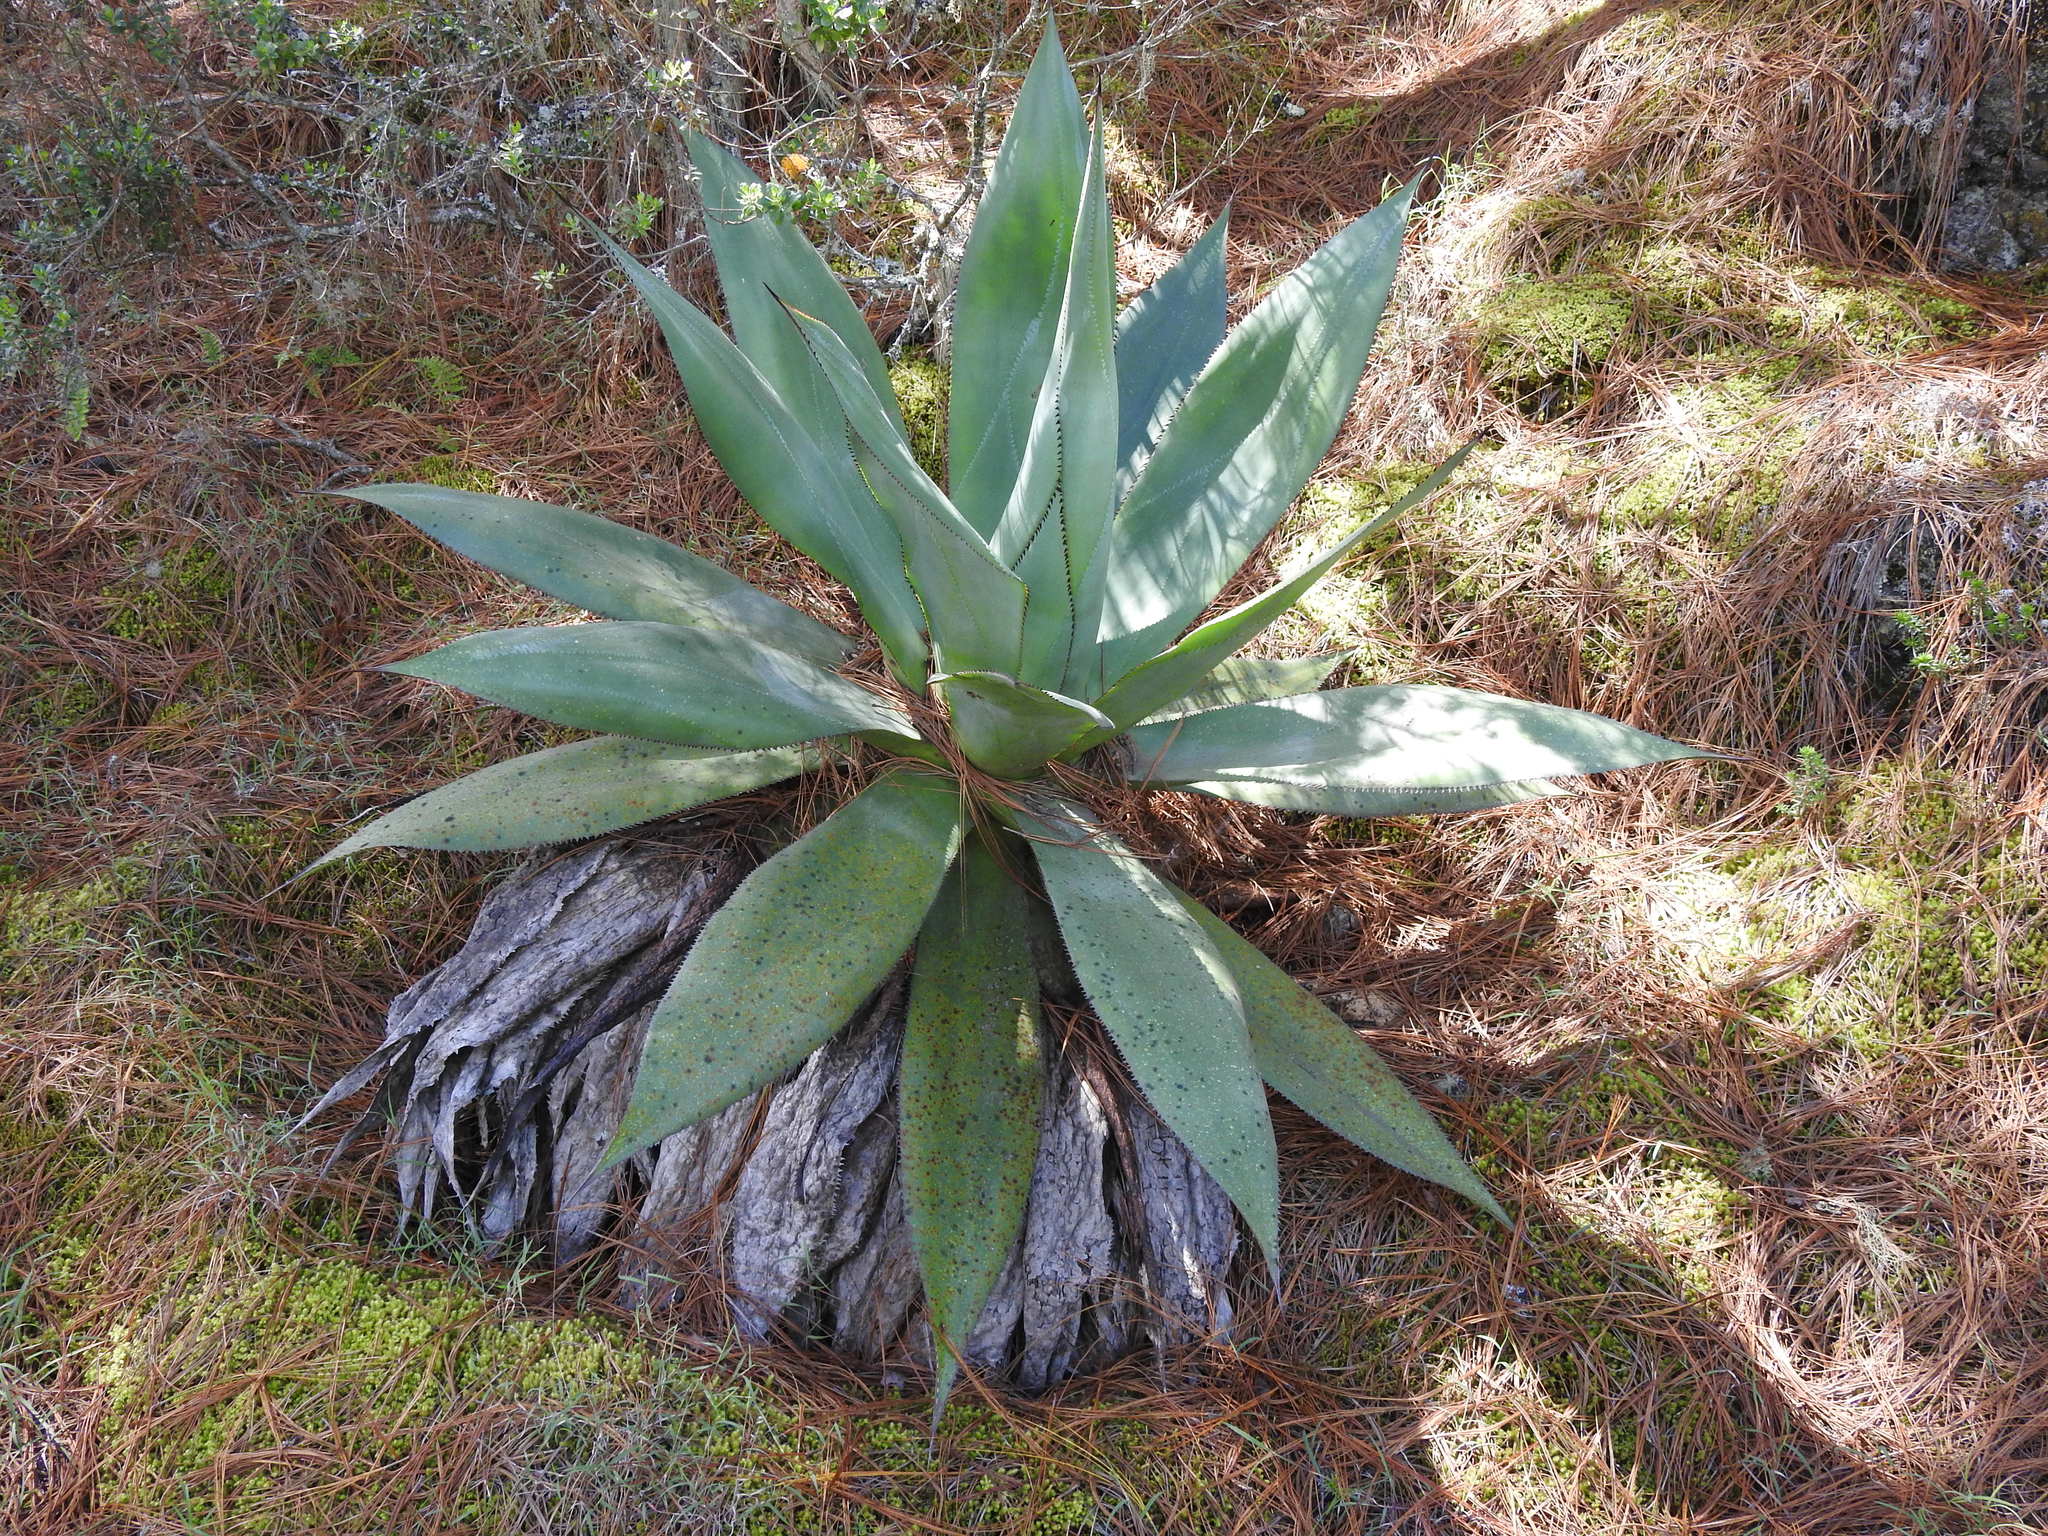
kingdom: Plantae
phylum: Tracheophyta
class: Liliopsida
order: Asparagales
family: Asparagaceae
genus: Agave
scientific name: Agave obscura
